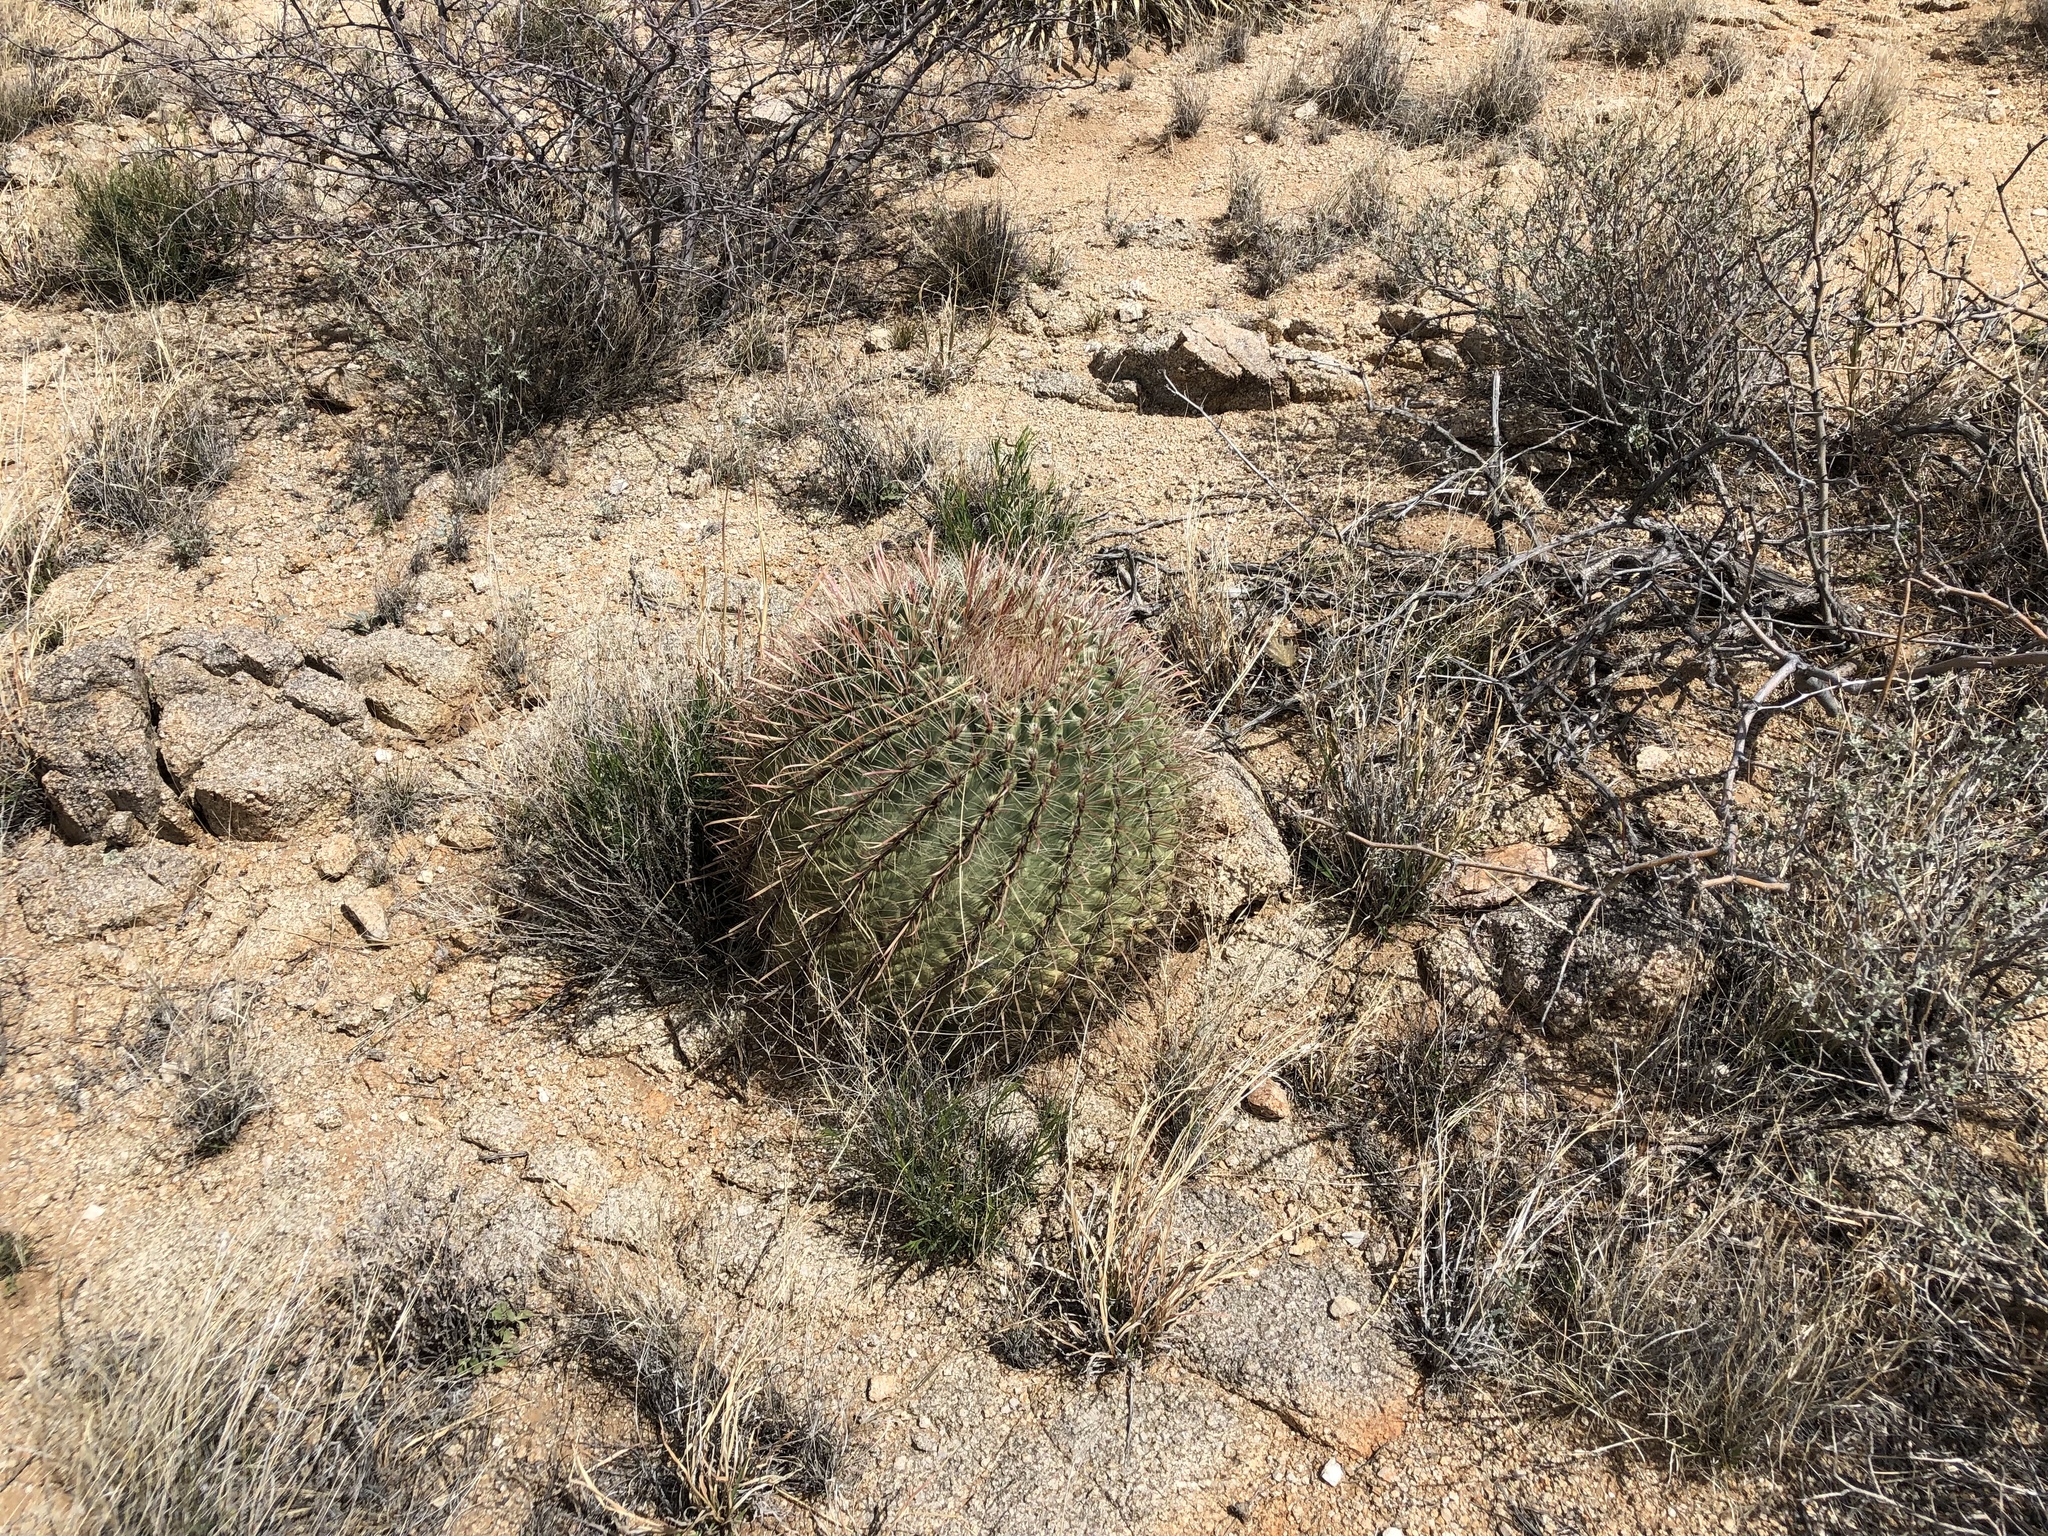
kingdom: Plantae
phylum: Tracheophyta
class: Magnoliopsida
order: Caryophyllales
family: Cactaceae
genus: Ferocactus
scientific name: Ferocactus wislizeni
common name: Candy barrel cactus
